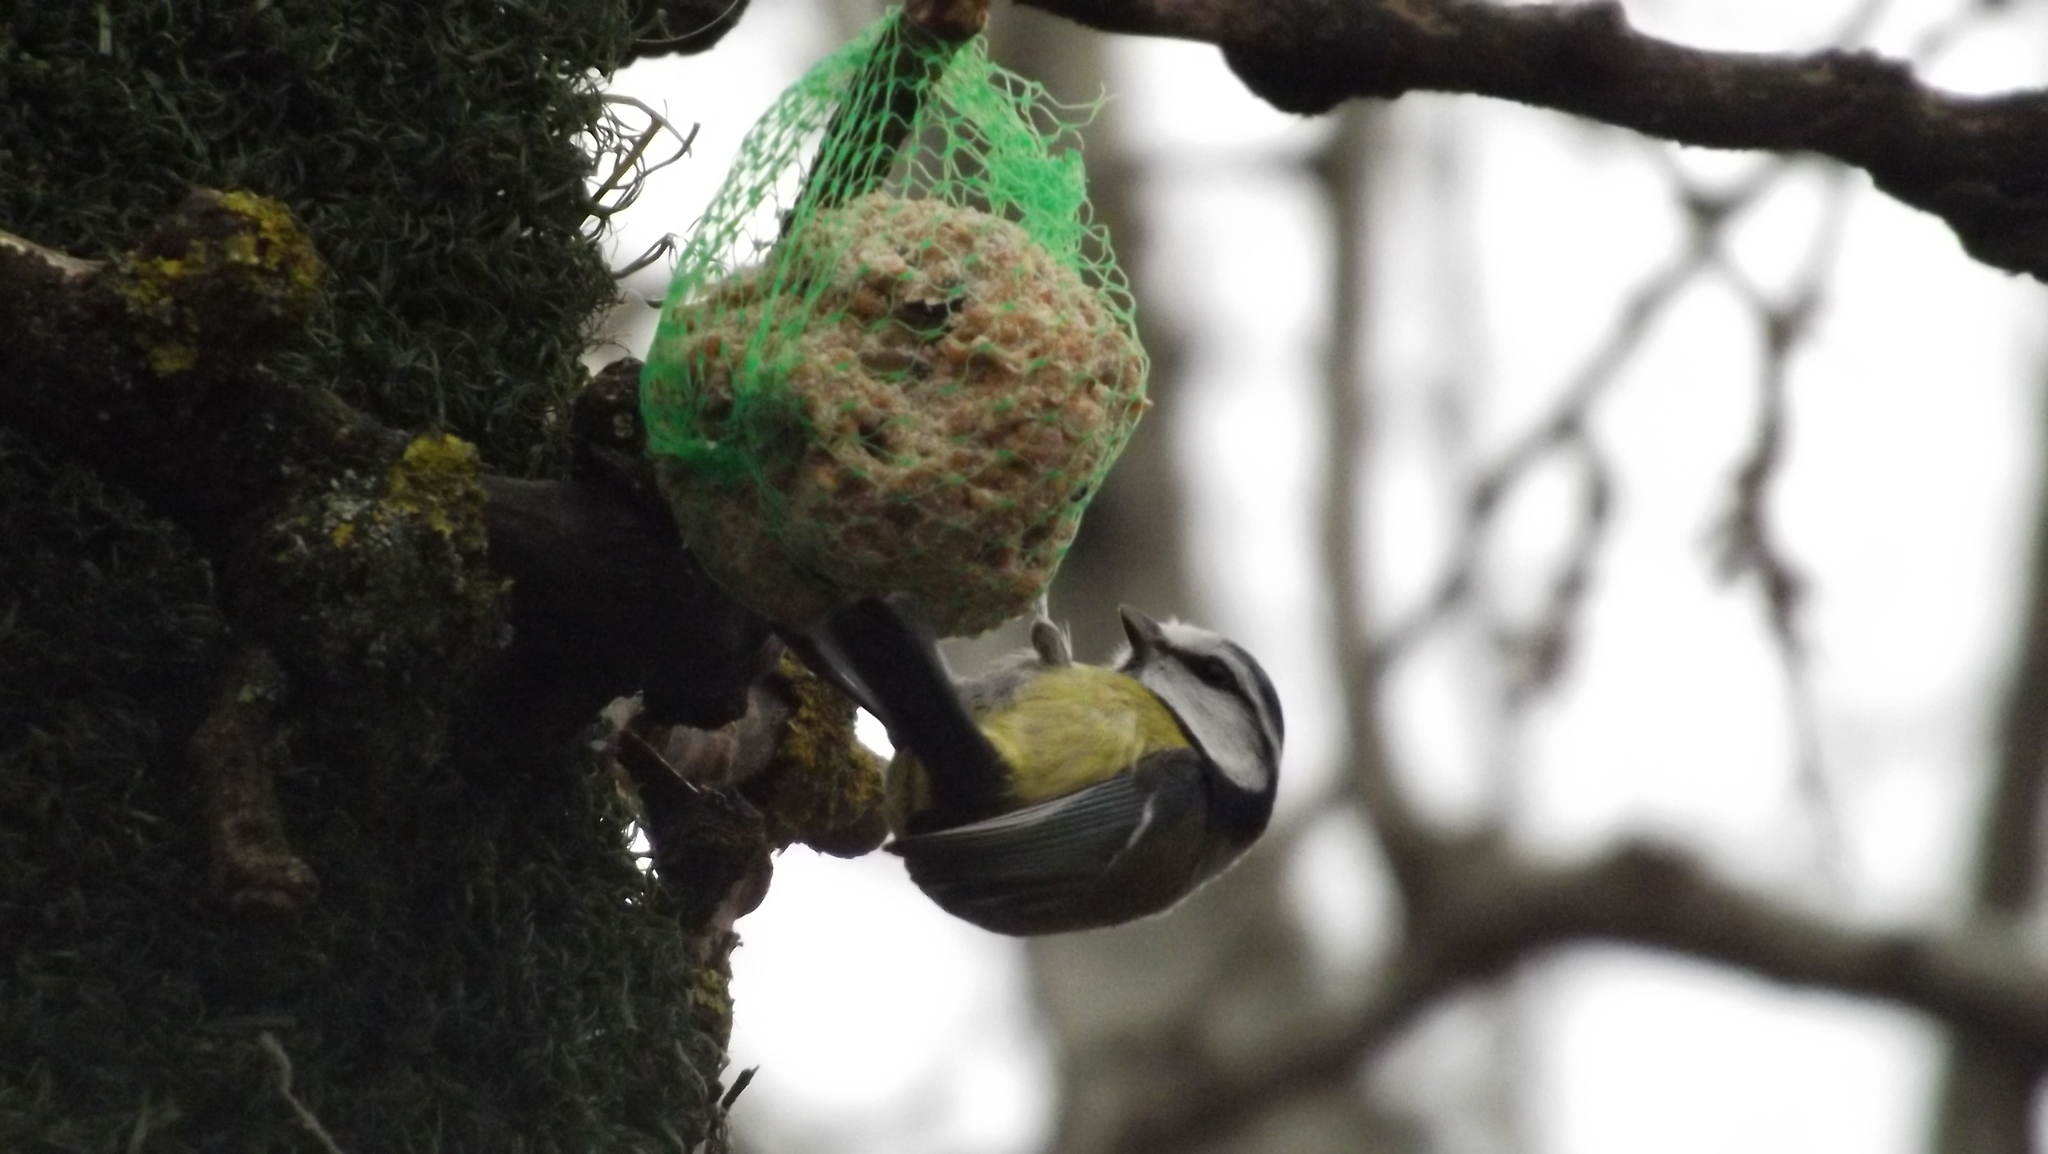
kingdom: Animalia
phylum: Chordata
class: Aves
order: Passeriformes
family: Paridae
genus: Cyanistes
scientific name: Cyanistes caeruleus
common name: Eurasian blue tit
